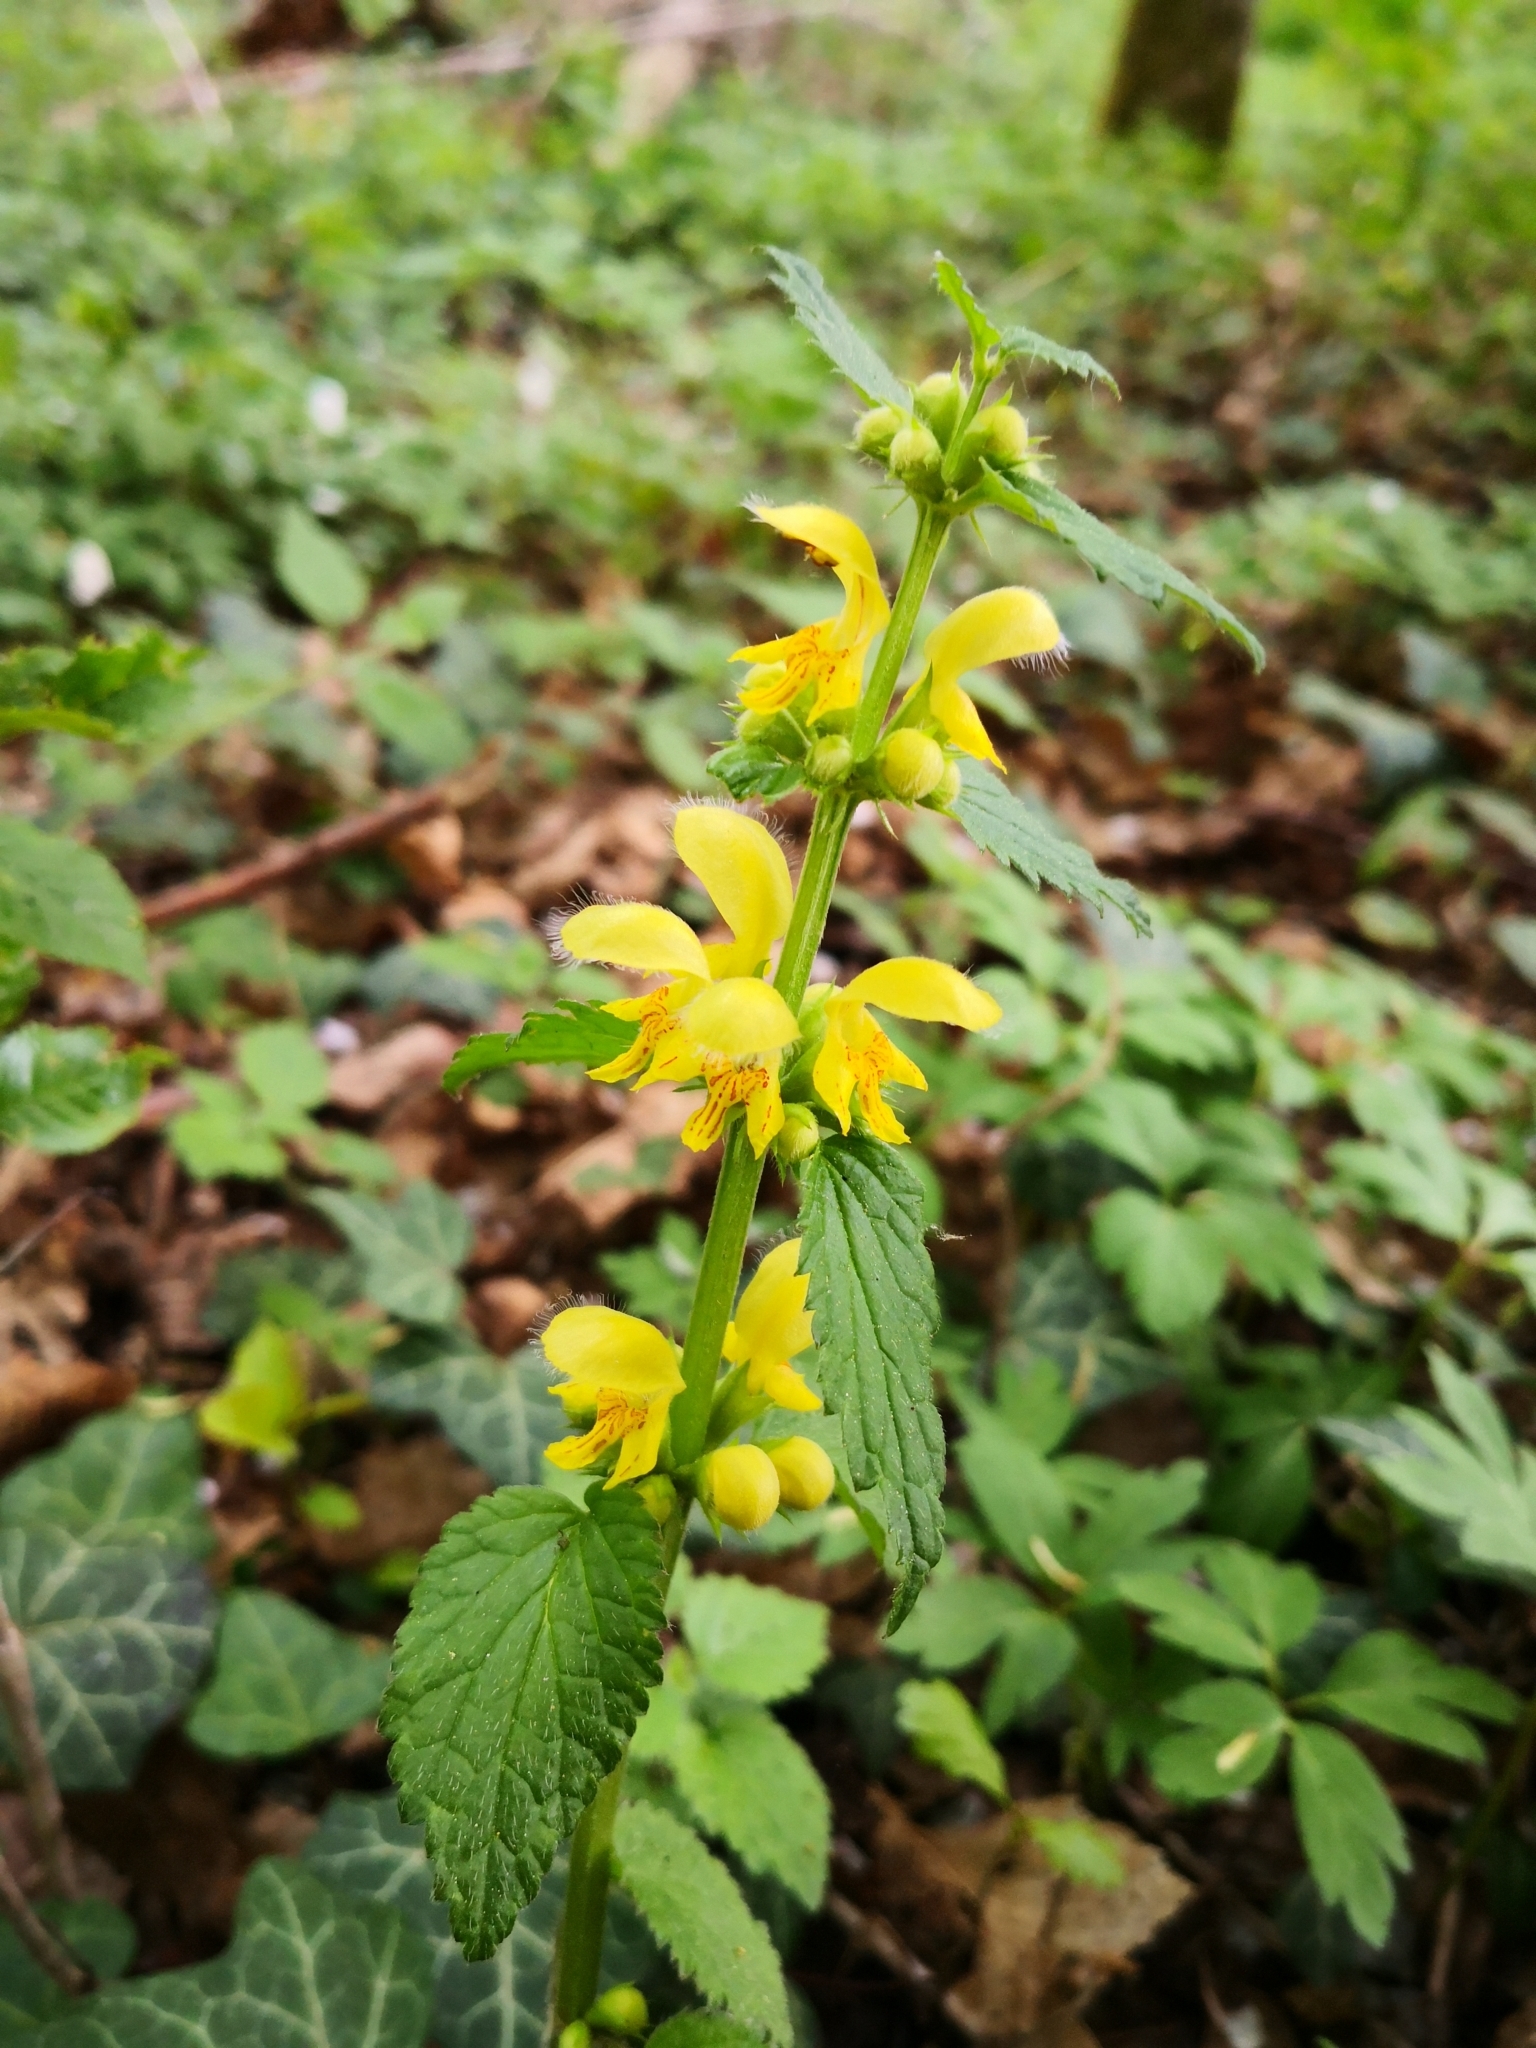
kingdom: Plantae
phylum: Tracheophyta
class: Magnoliopsida
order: Lamiales
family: Lamiaceae
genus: Lamium
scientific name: Lamium galeobdolon
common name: Yellow archangel
